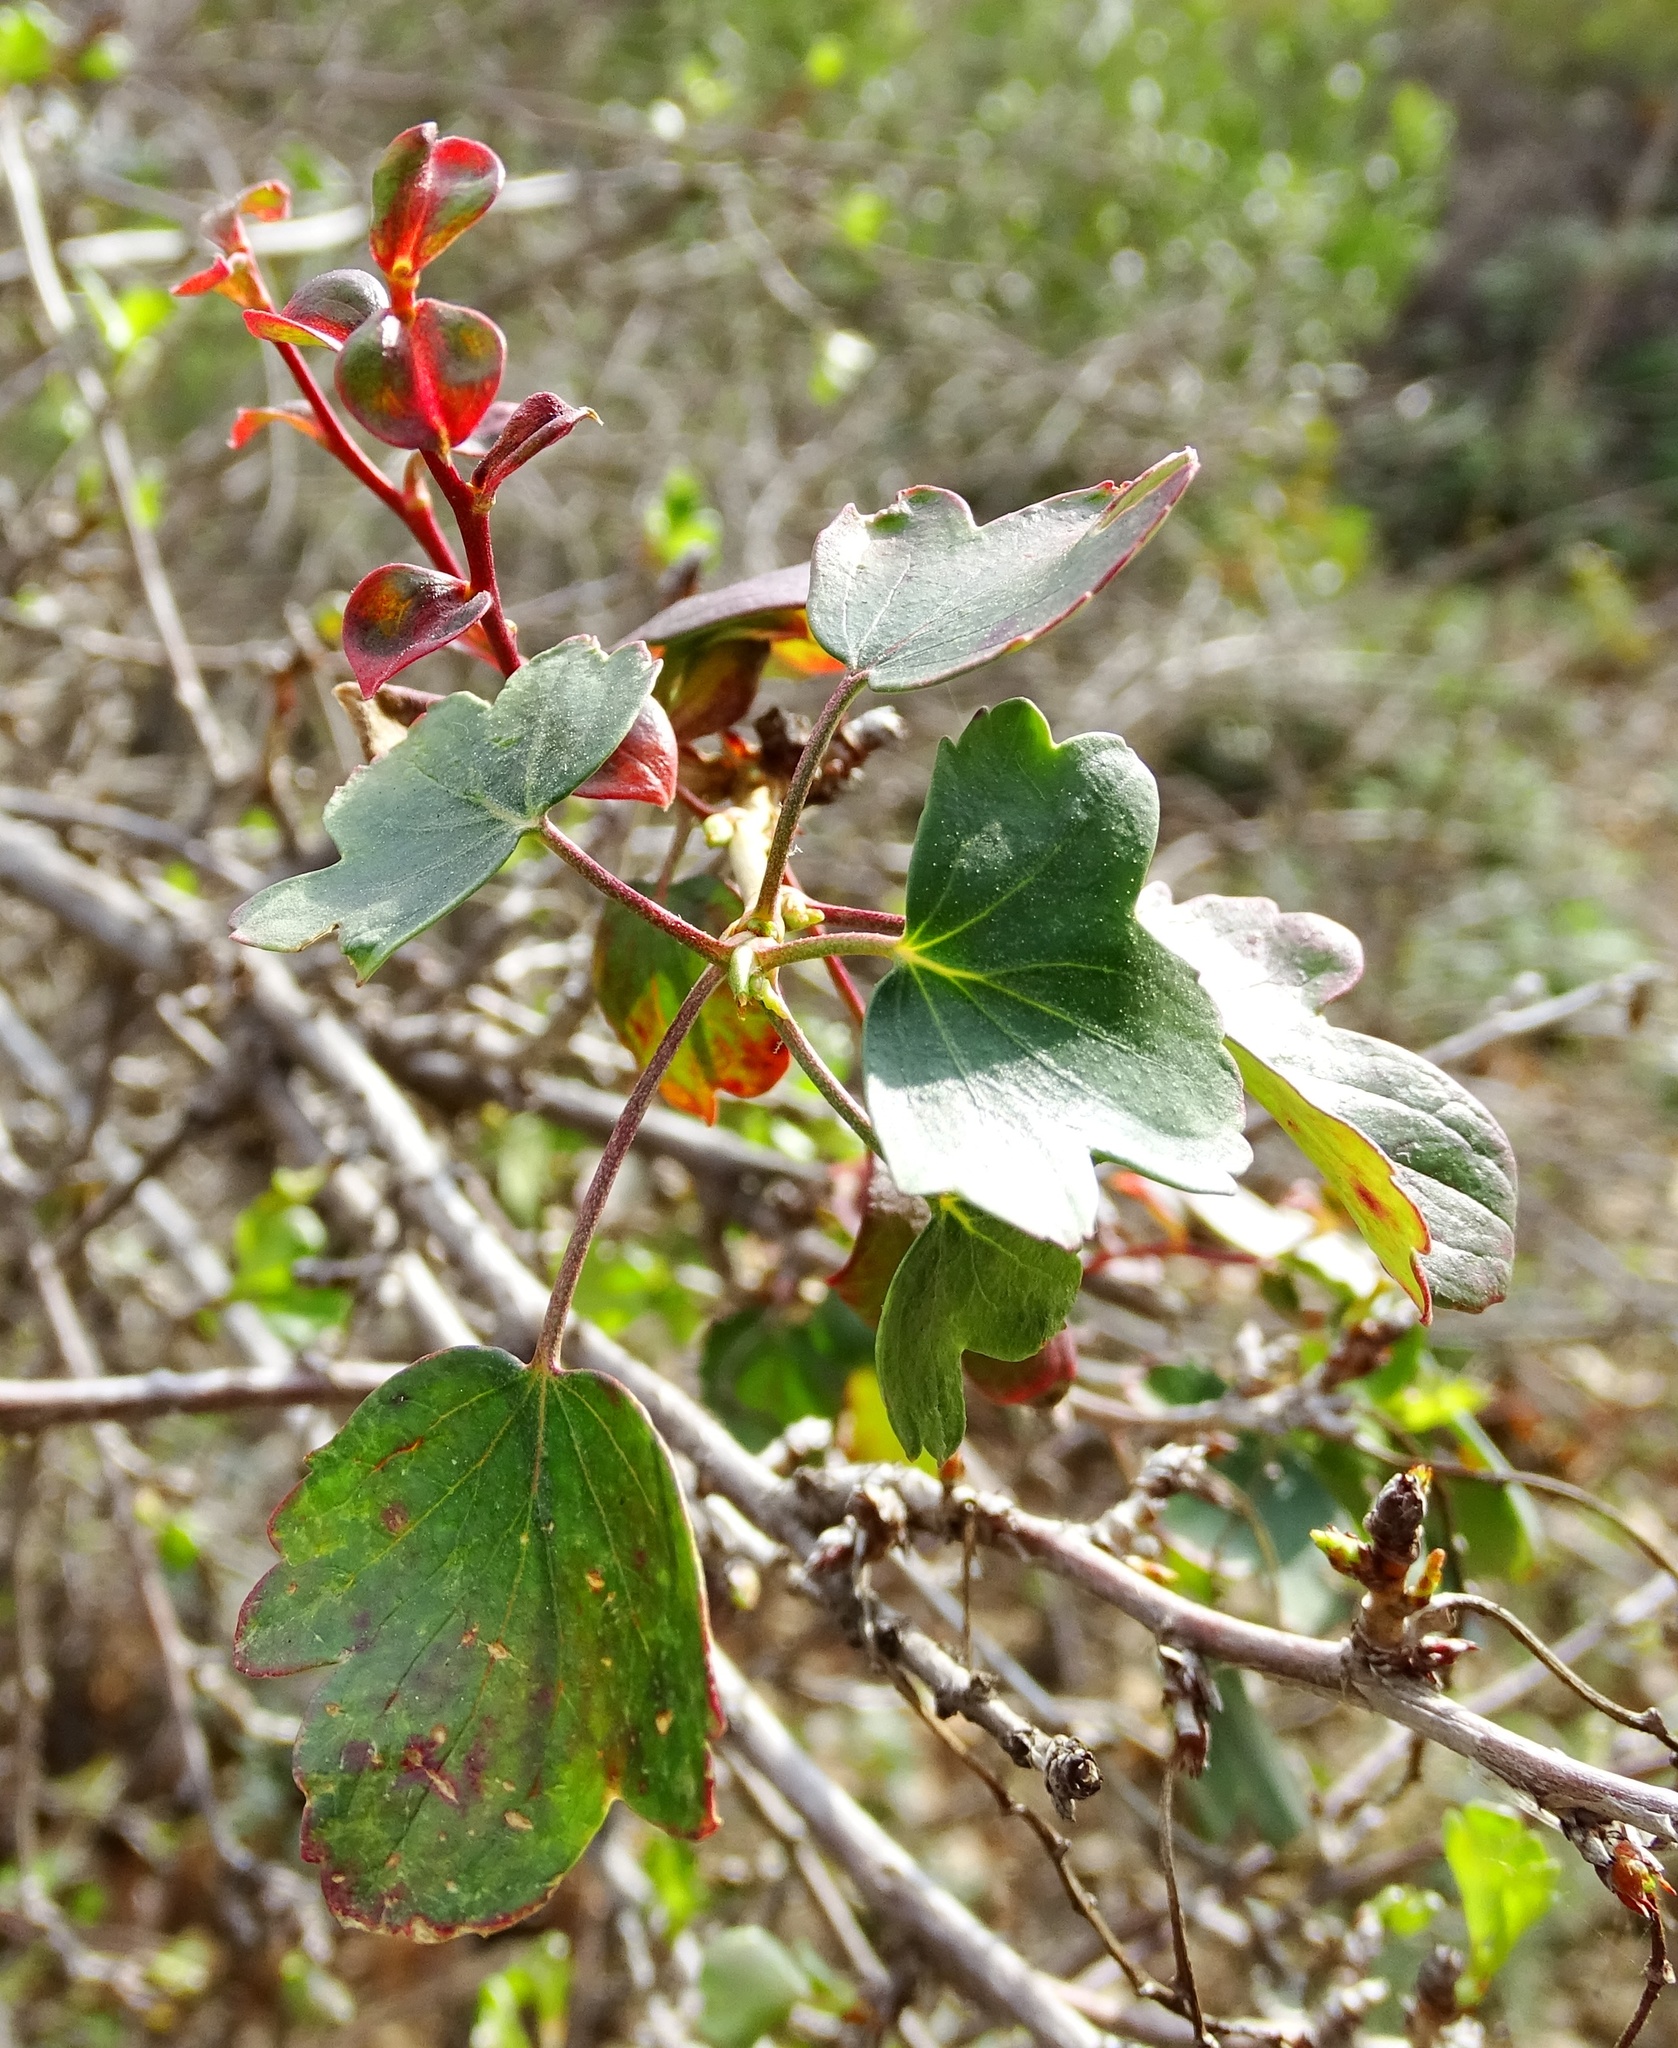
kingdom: Plantae
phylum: Tracheophyta
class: Magnoliopsida
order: Saxifragales
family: Grossulariaceae
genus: Ribes
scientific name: Ribes aureum
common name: Golden currant
